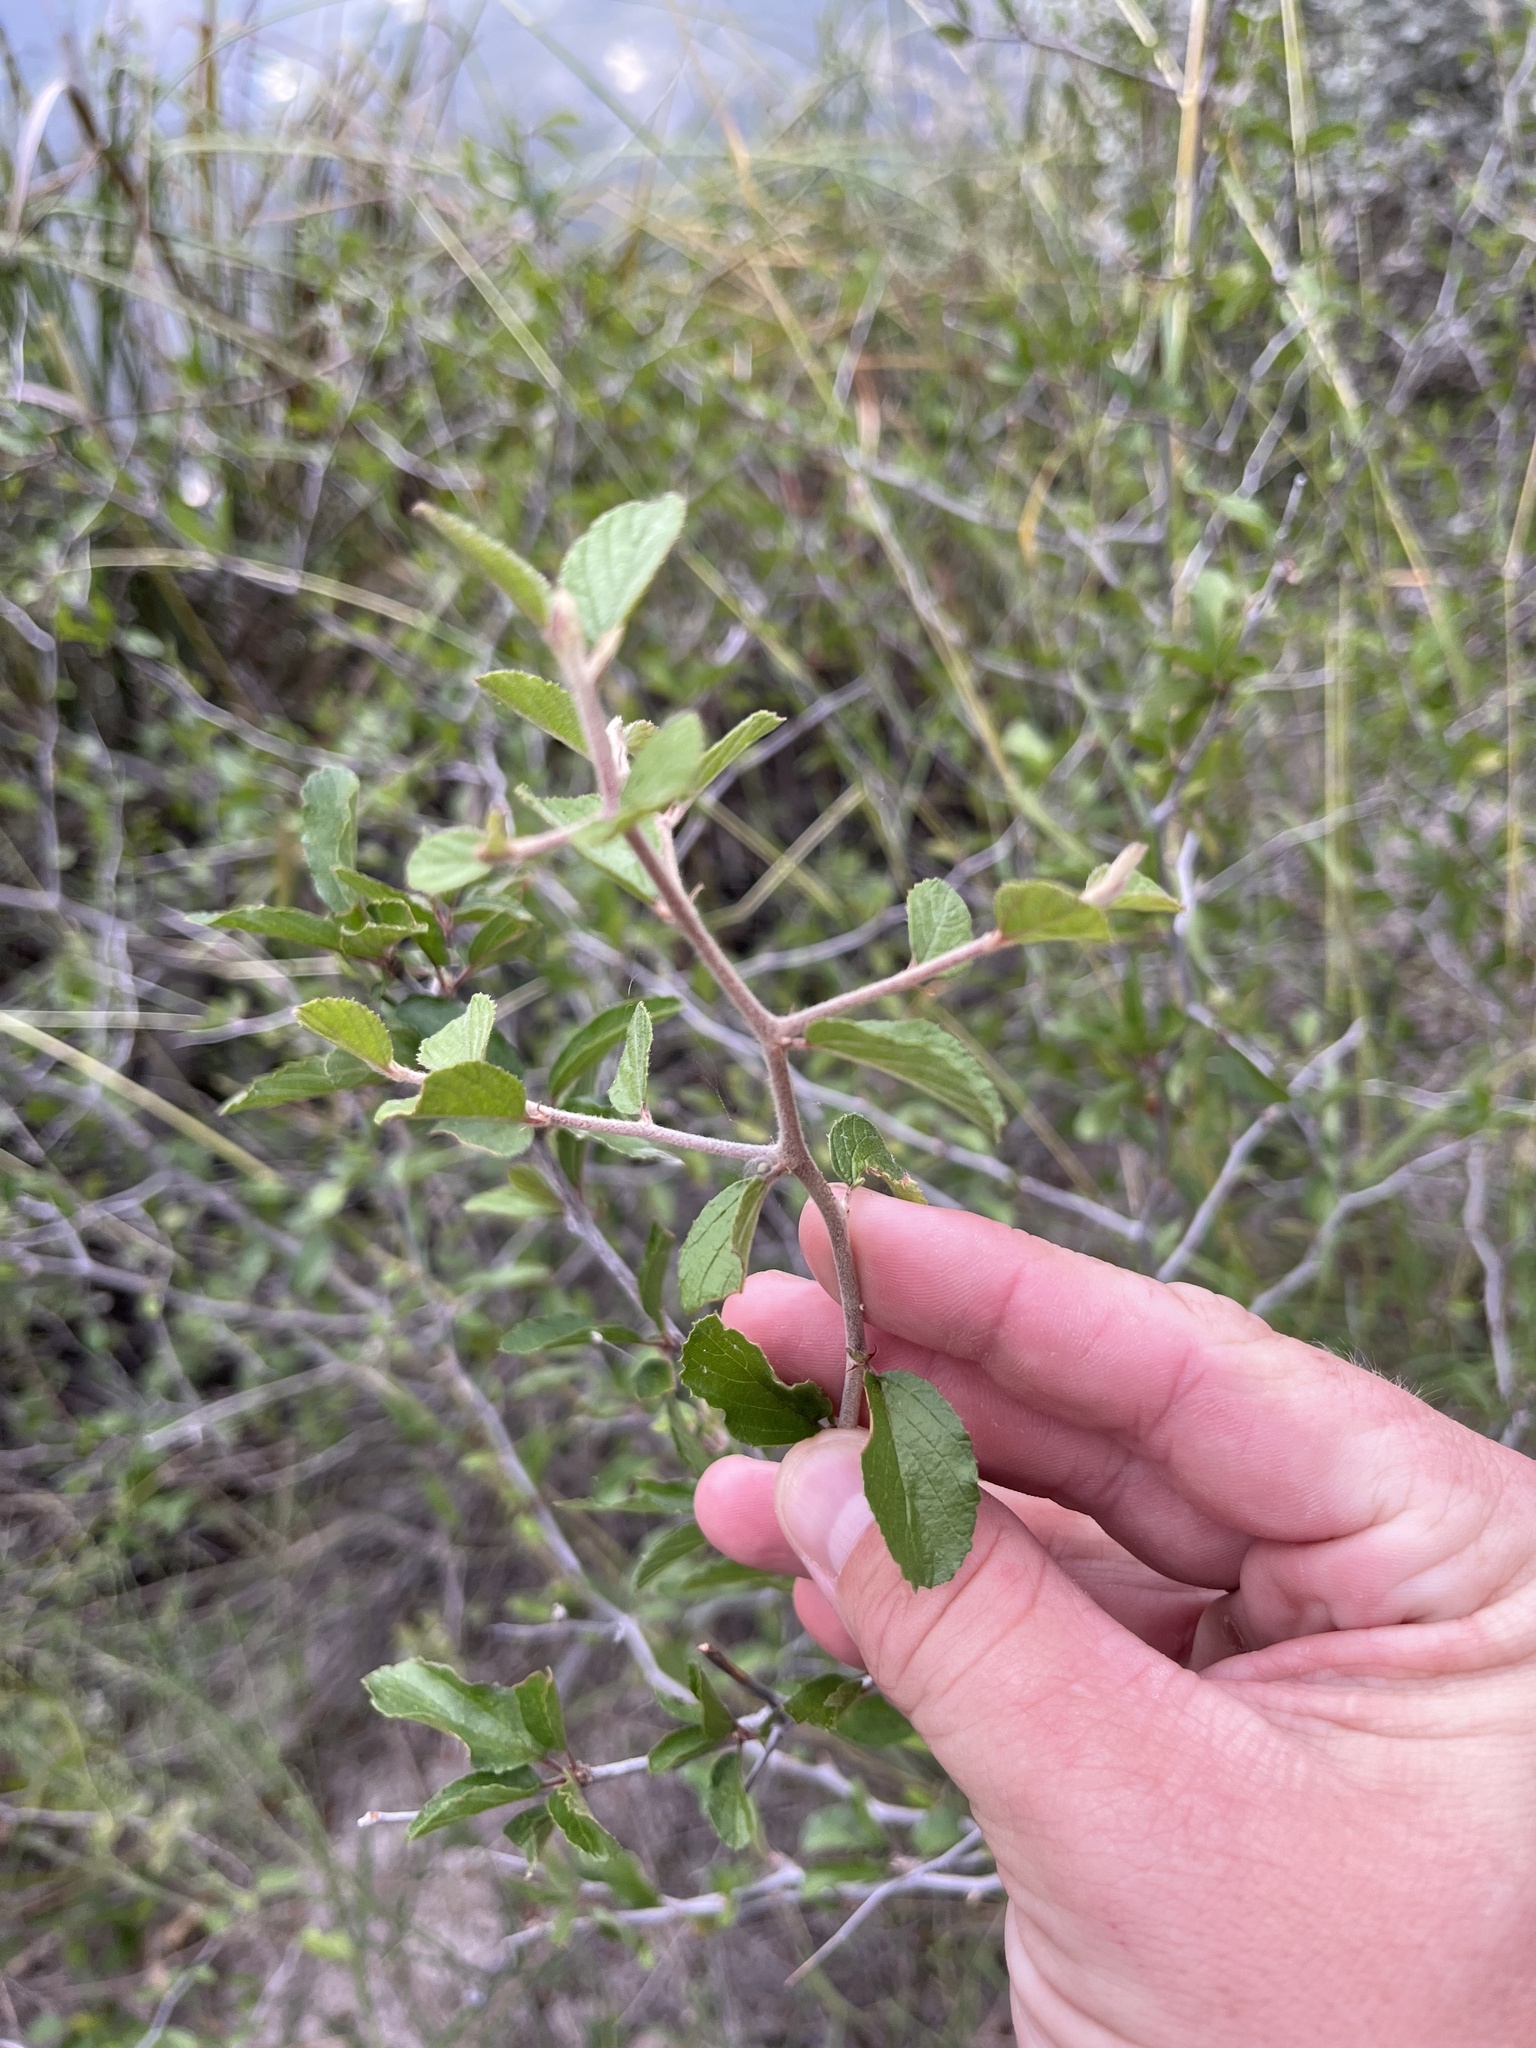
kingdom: Plantae
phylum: Tracheophyta
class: Magnoliopsida
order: Rosales
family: Rhamnaceae
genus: Colubrina
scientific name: Colubrina texensis
